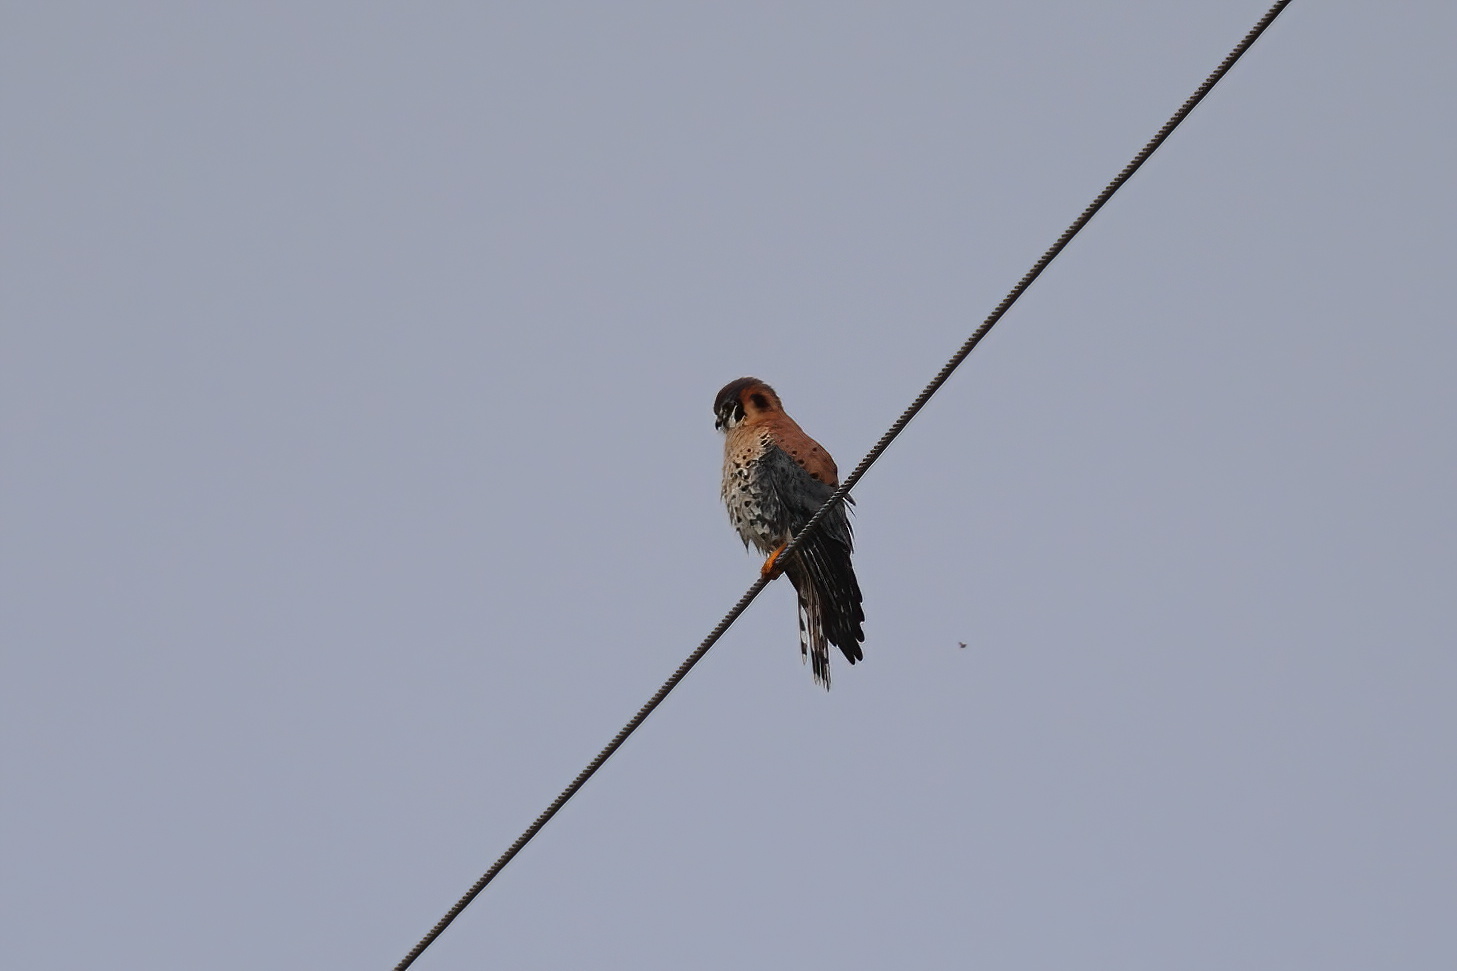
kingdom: Animalia
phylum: Chordata
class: Aves
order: Falconiformes
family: Falconidae
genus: Falco
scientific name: Falco sparverius
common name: American kestrel
